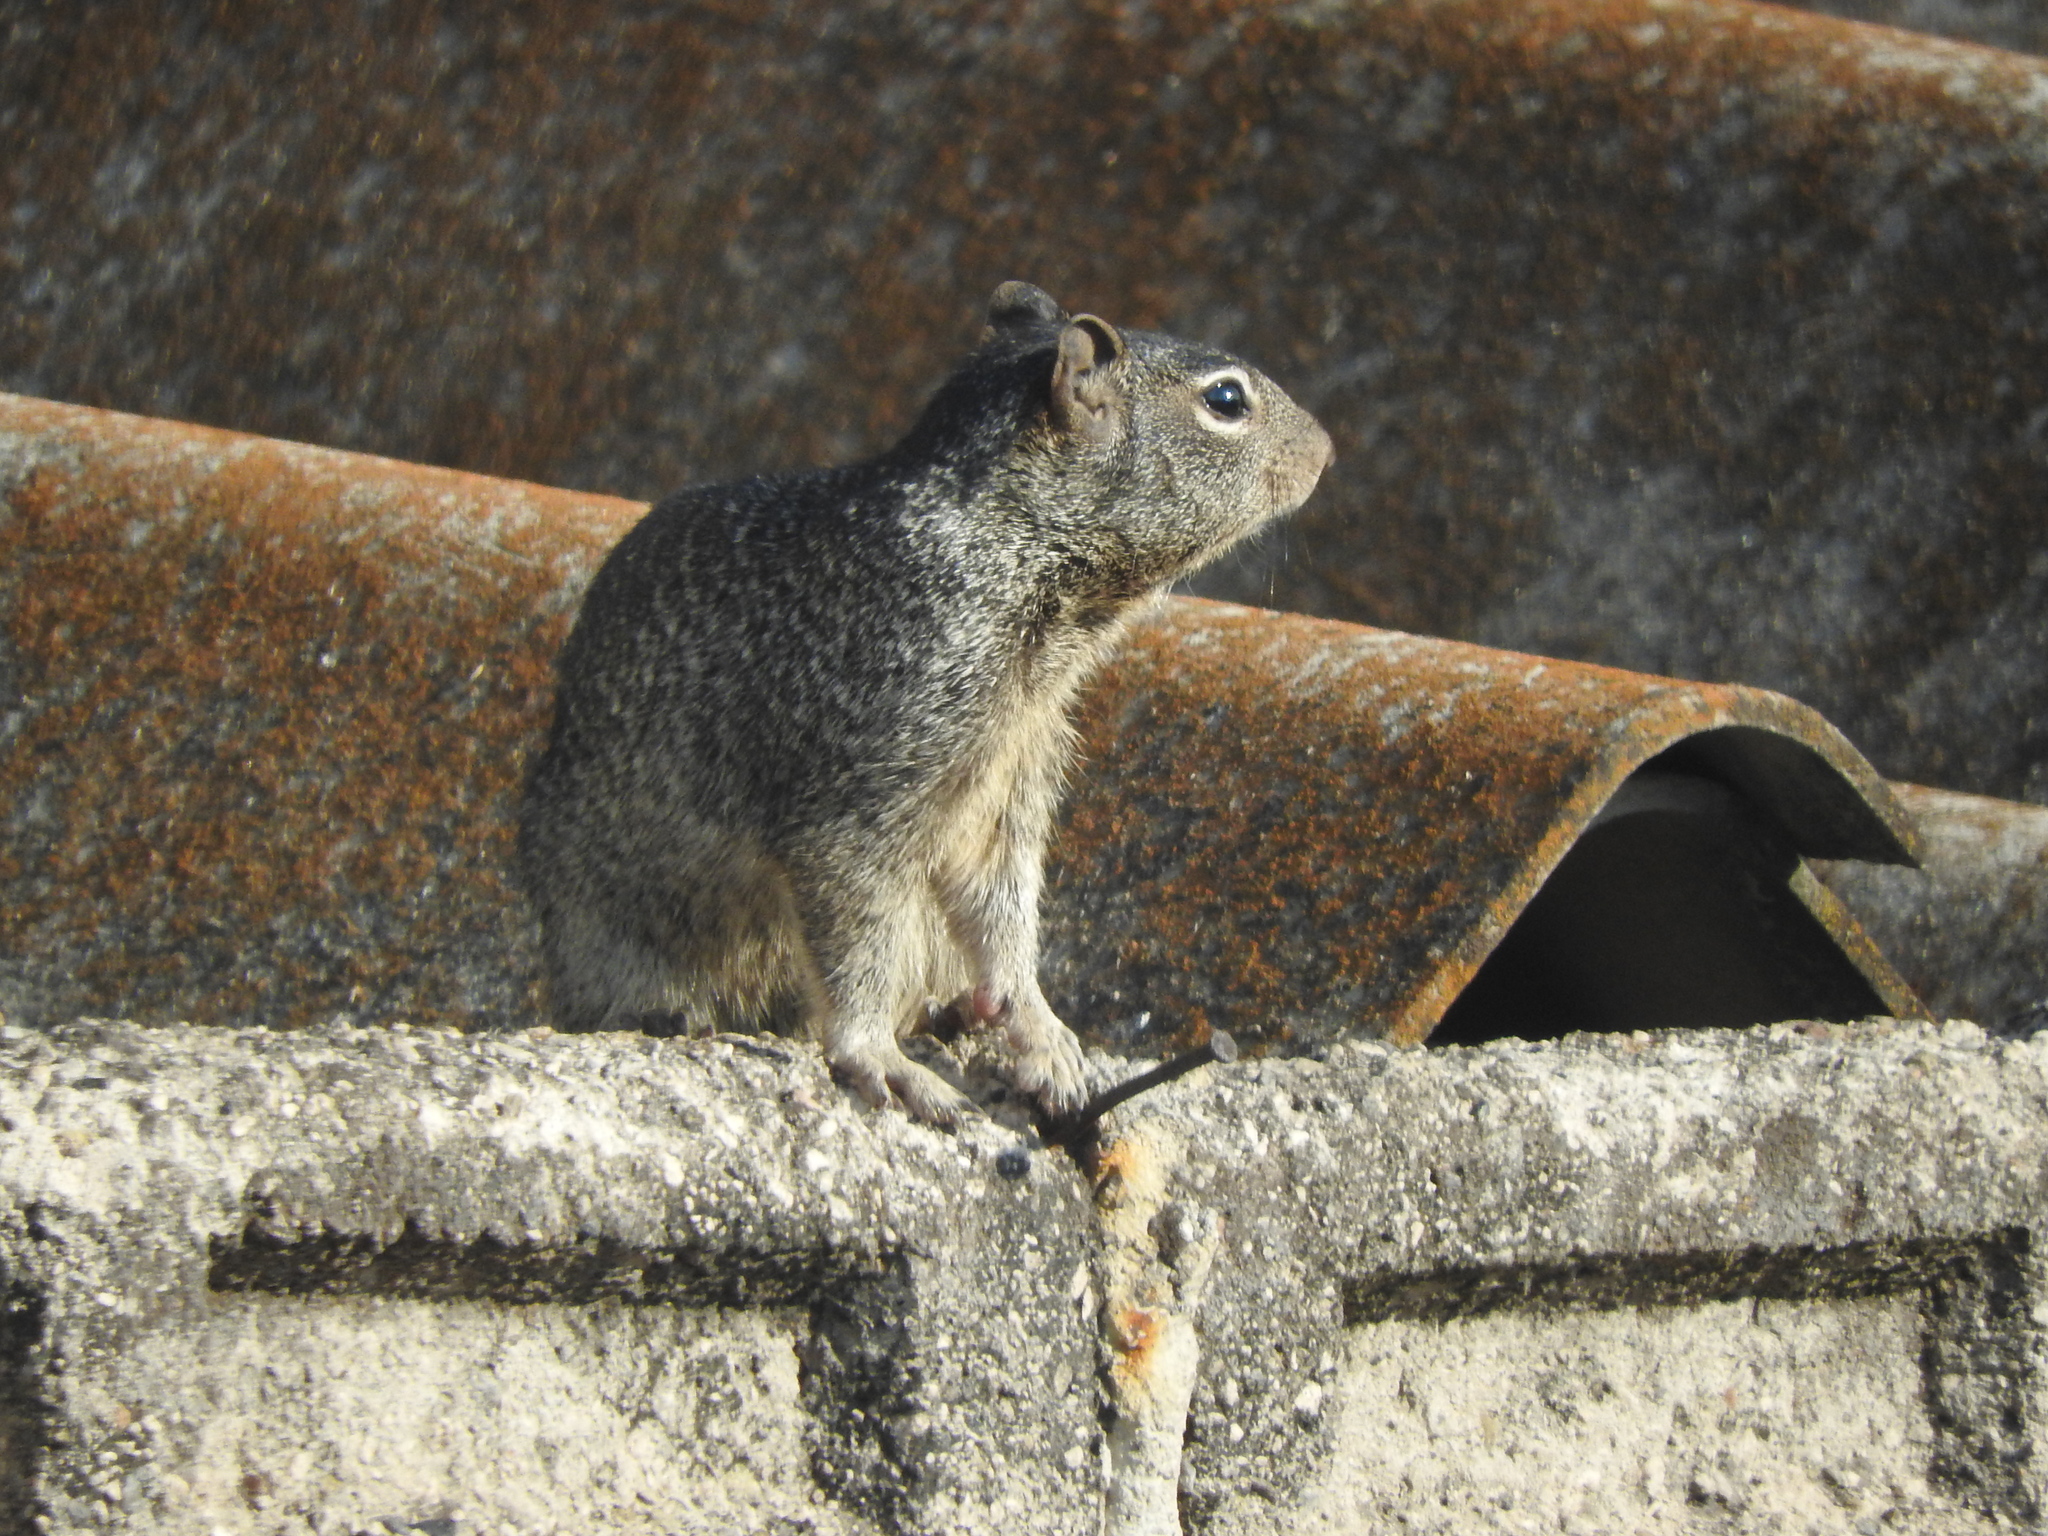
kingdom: Animalia
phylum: Chordata
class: Mammalia
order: Rodentia
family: Sciuridae
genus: Otospermophilus
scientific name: Otospermophilus variegatus
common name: Rock squirrel
